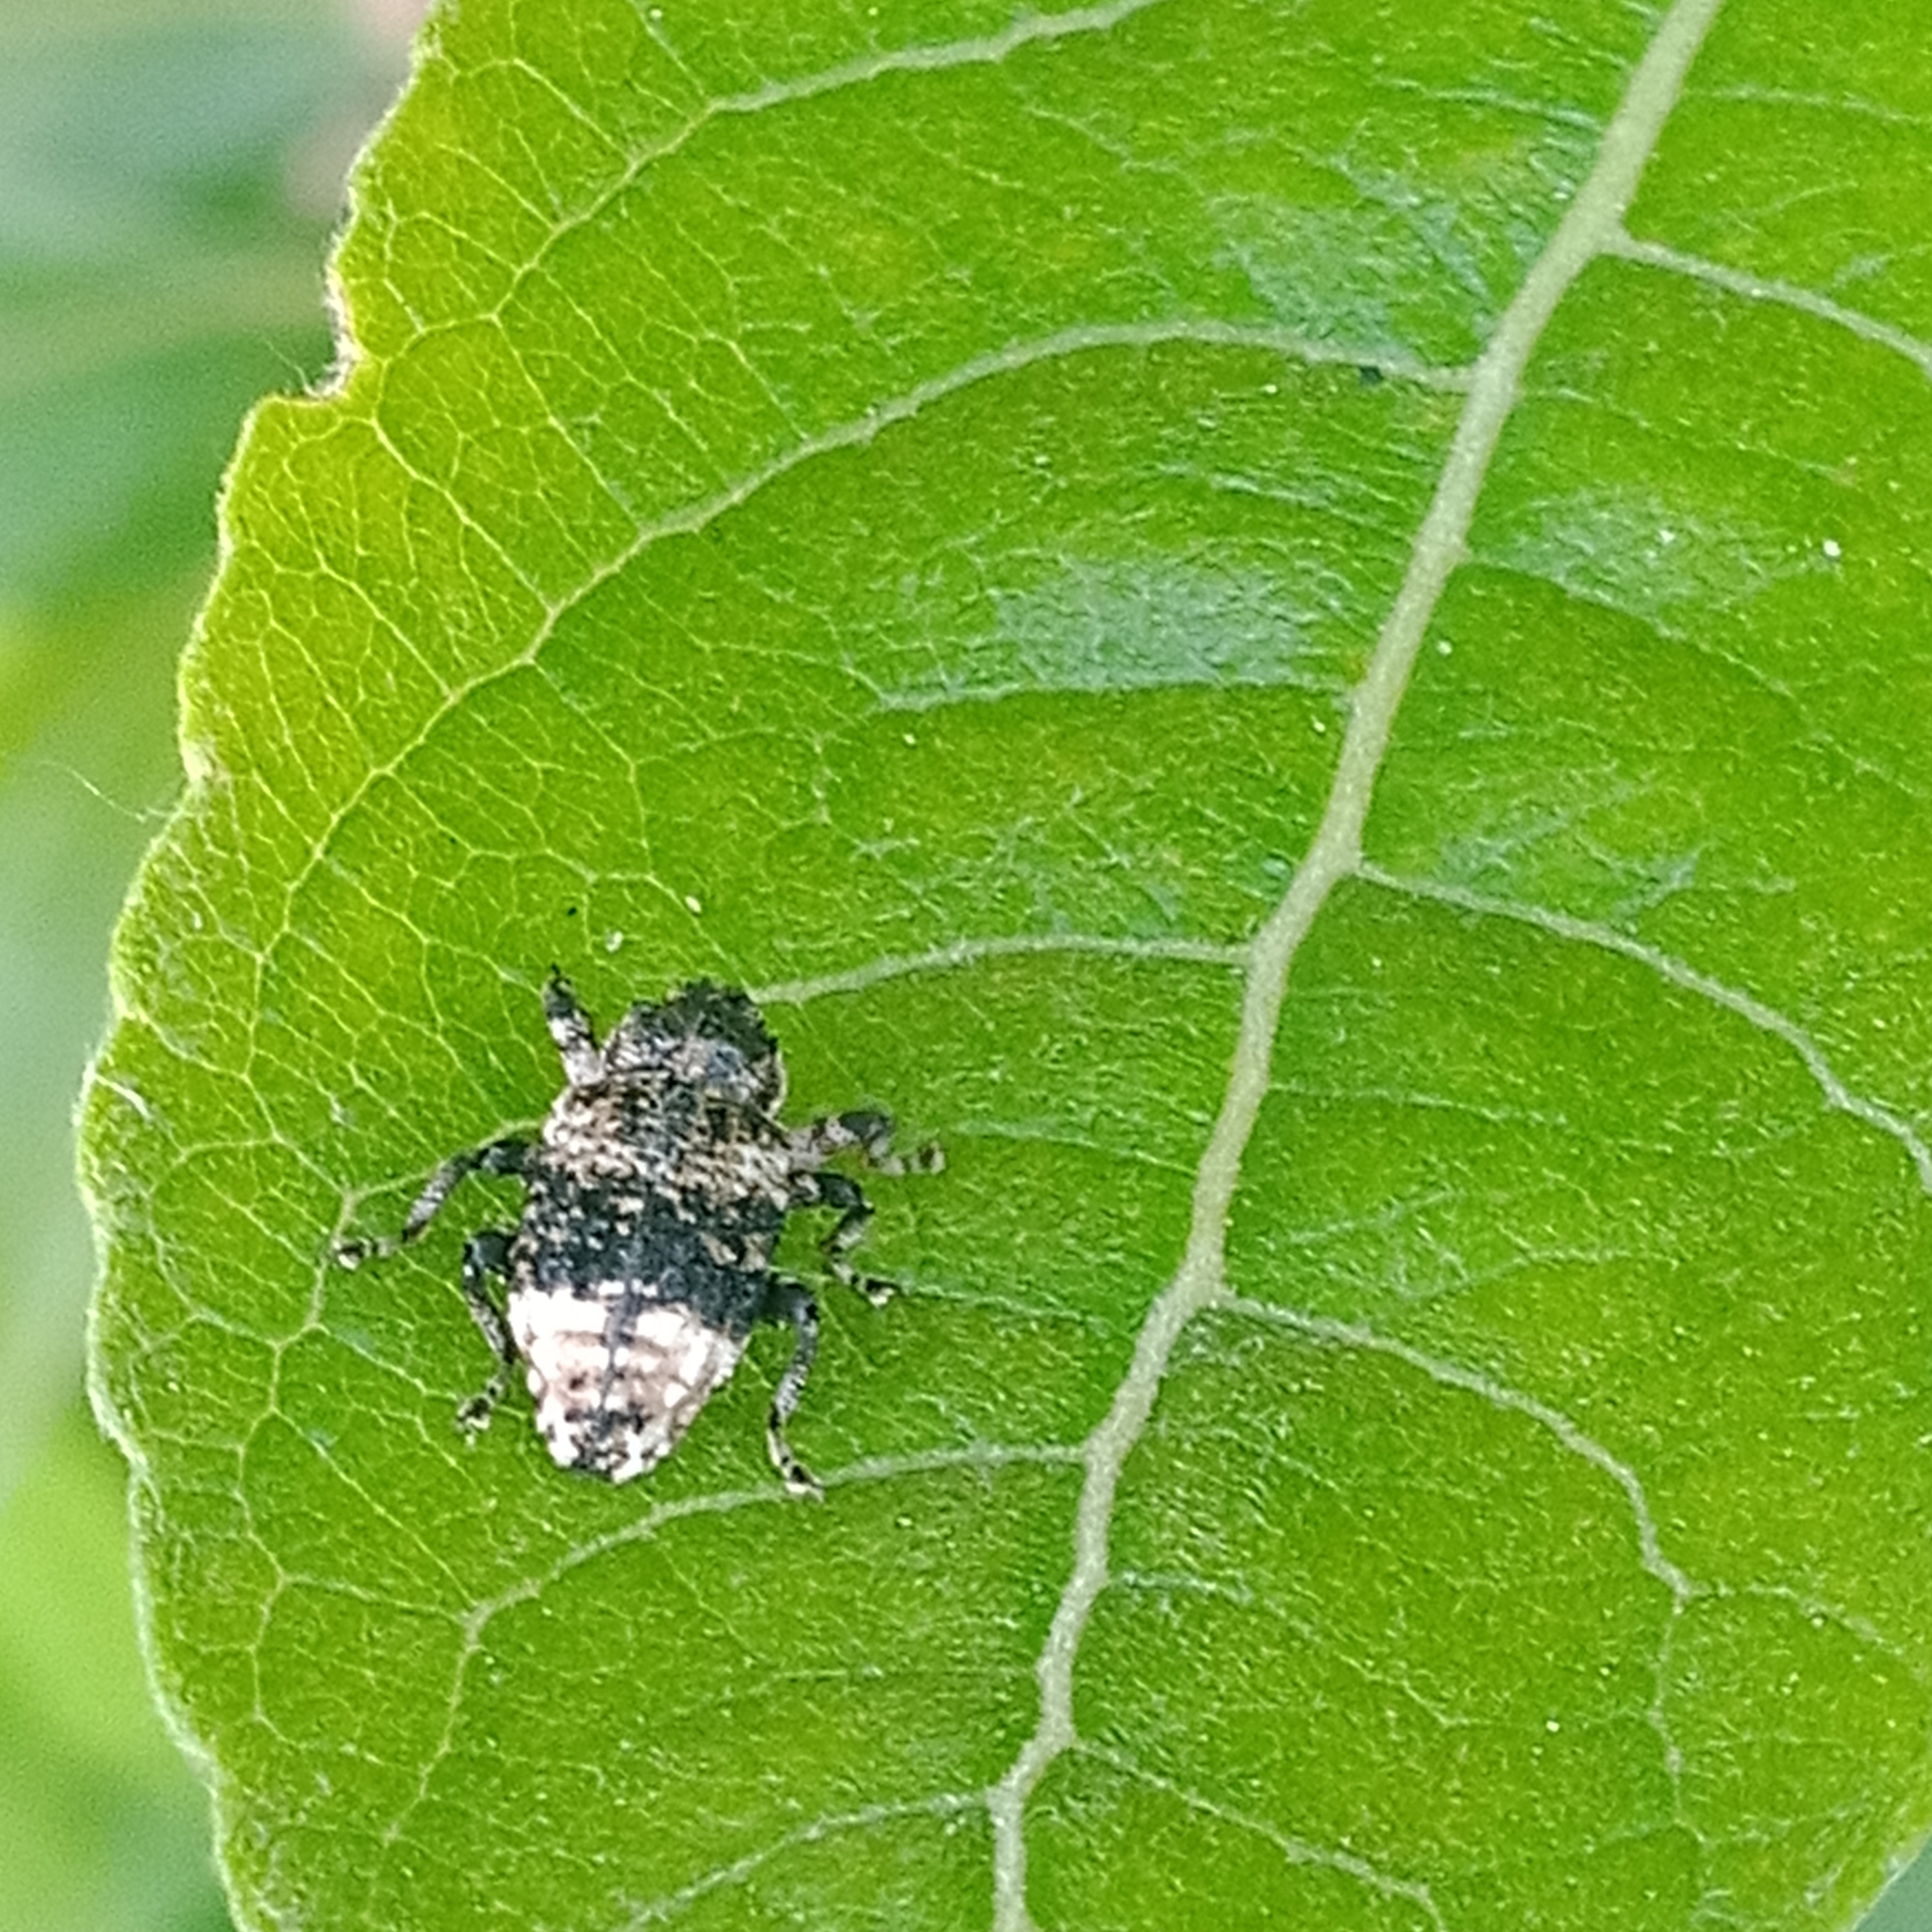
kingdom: Animalia
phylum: Arthropoda
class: Insecta
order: Coleoptera
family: Curculionidae
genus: Cryptorhynchus
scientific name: Cryptorhynchus lapathi
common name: Weevil
